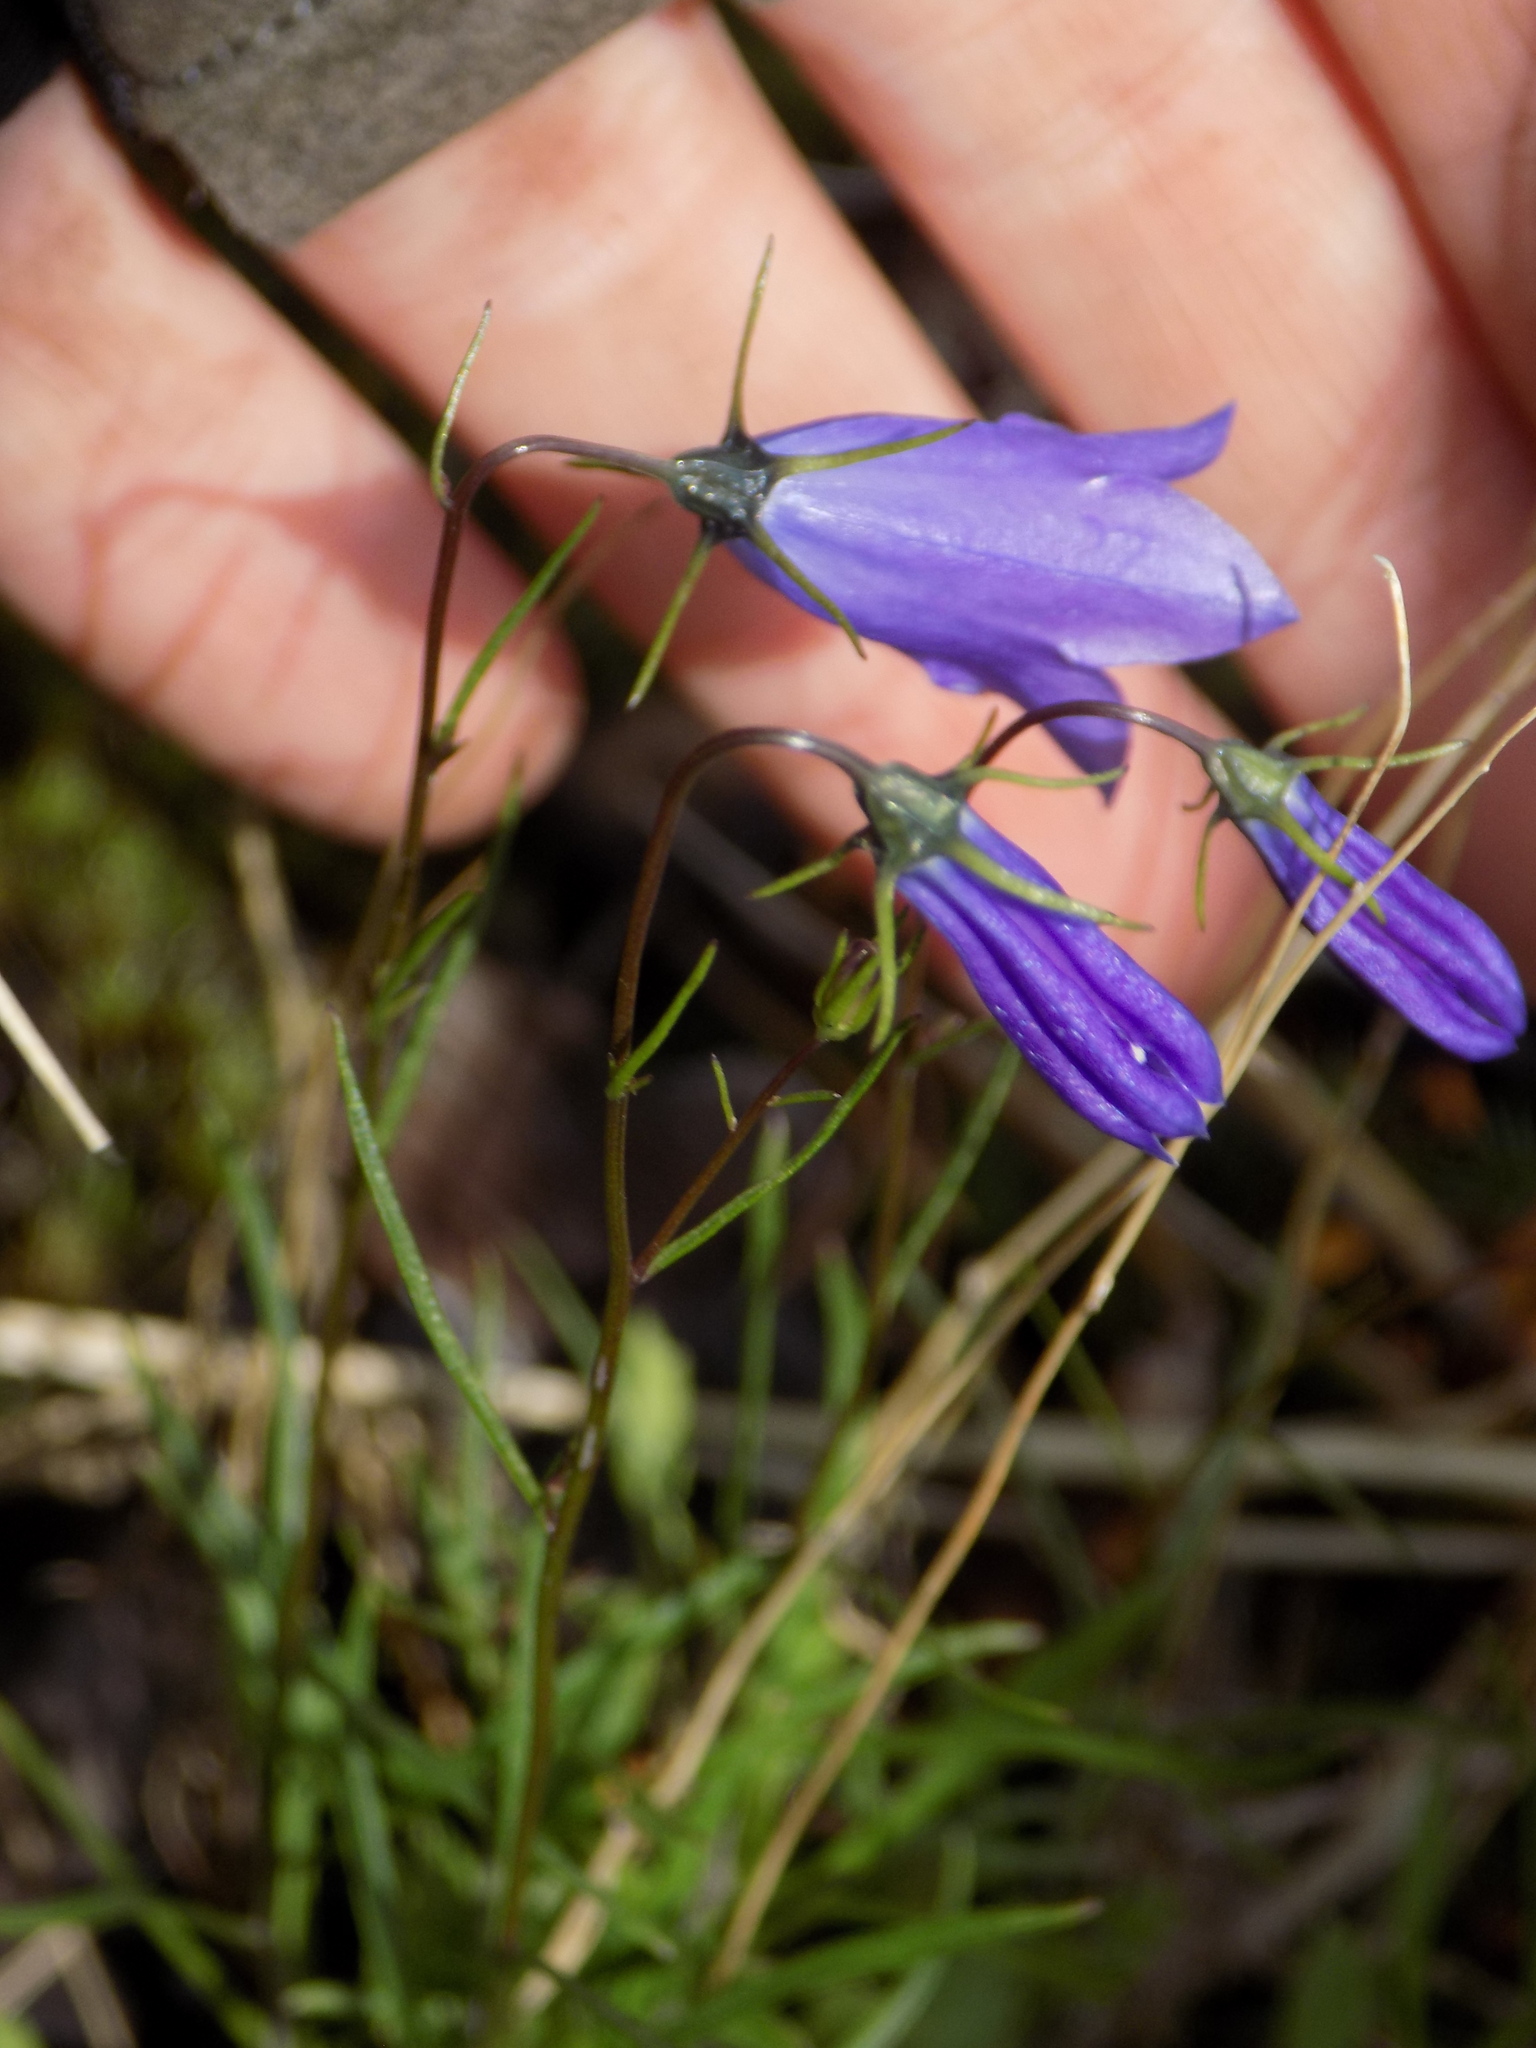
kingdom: Plantae
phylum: Tracheophyta
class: Magnoliopsida
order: Asterales
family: Campanulaceae
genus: Campanula
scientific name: Campanula rotundifolia
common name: Harebell
